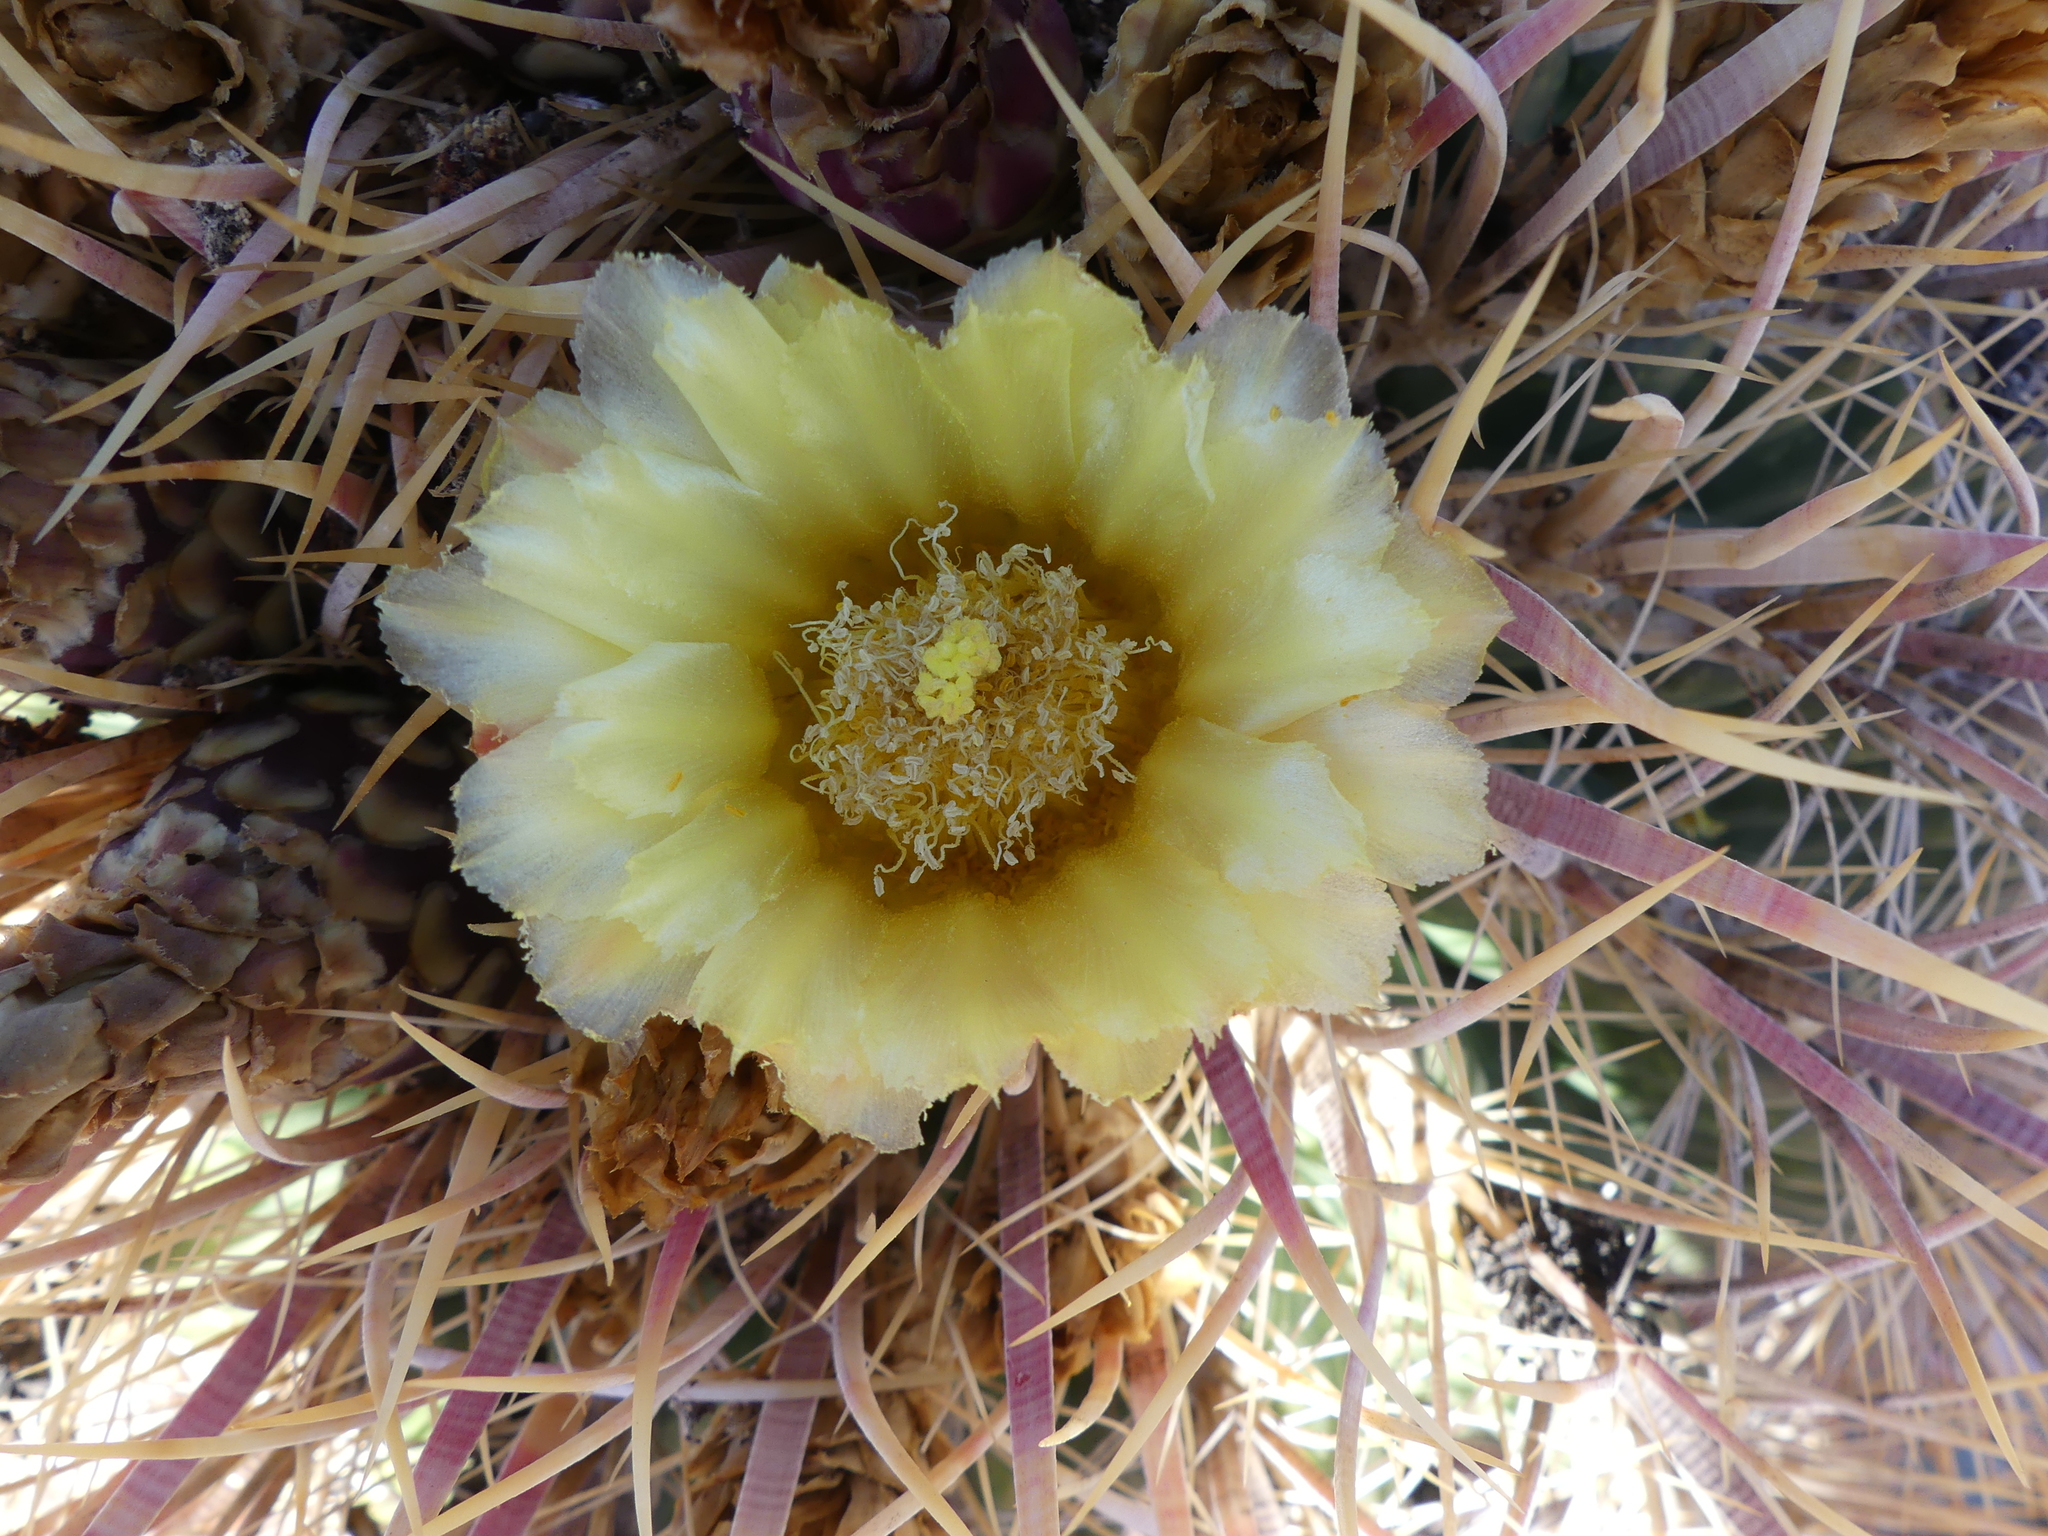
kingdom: Plantae
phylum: Tracheophyta
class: Magnoliopsida
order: Caryophyllales
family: Cactaceae
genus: Ferocactus
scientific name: Ferocactus cylindraceus
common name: California barrel cactus
